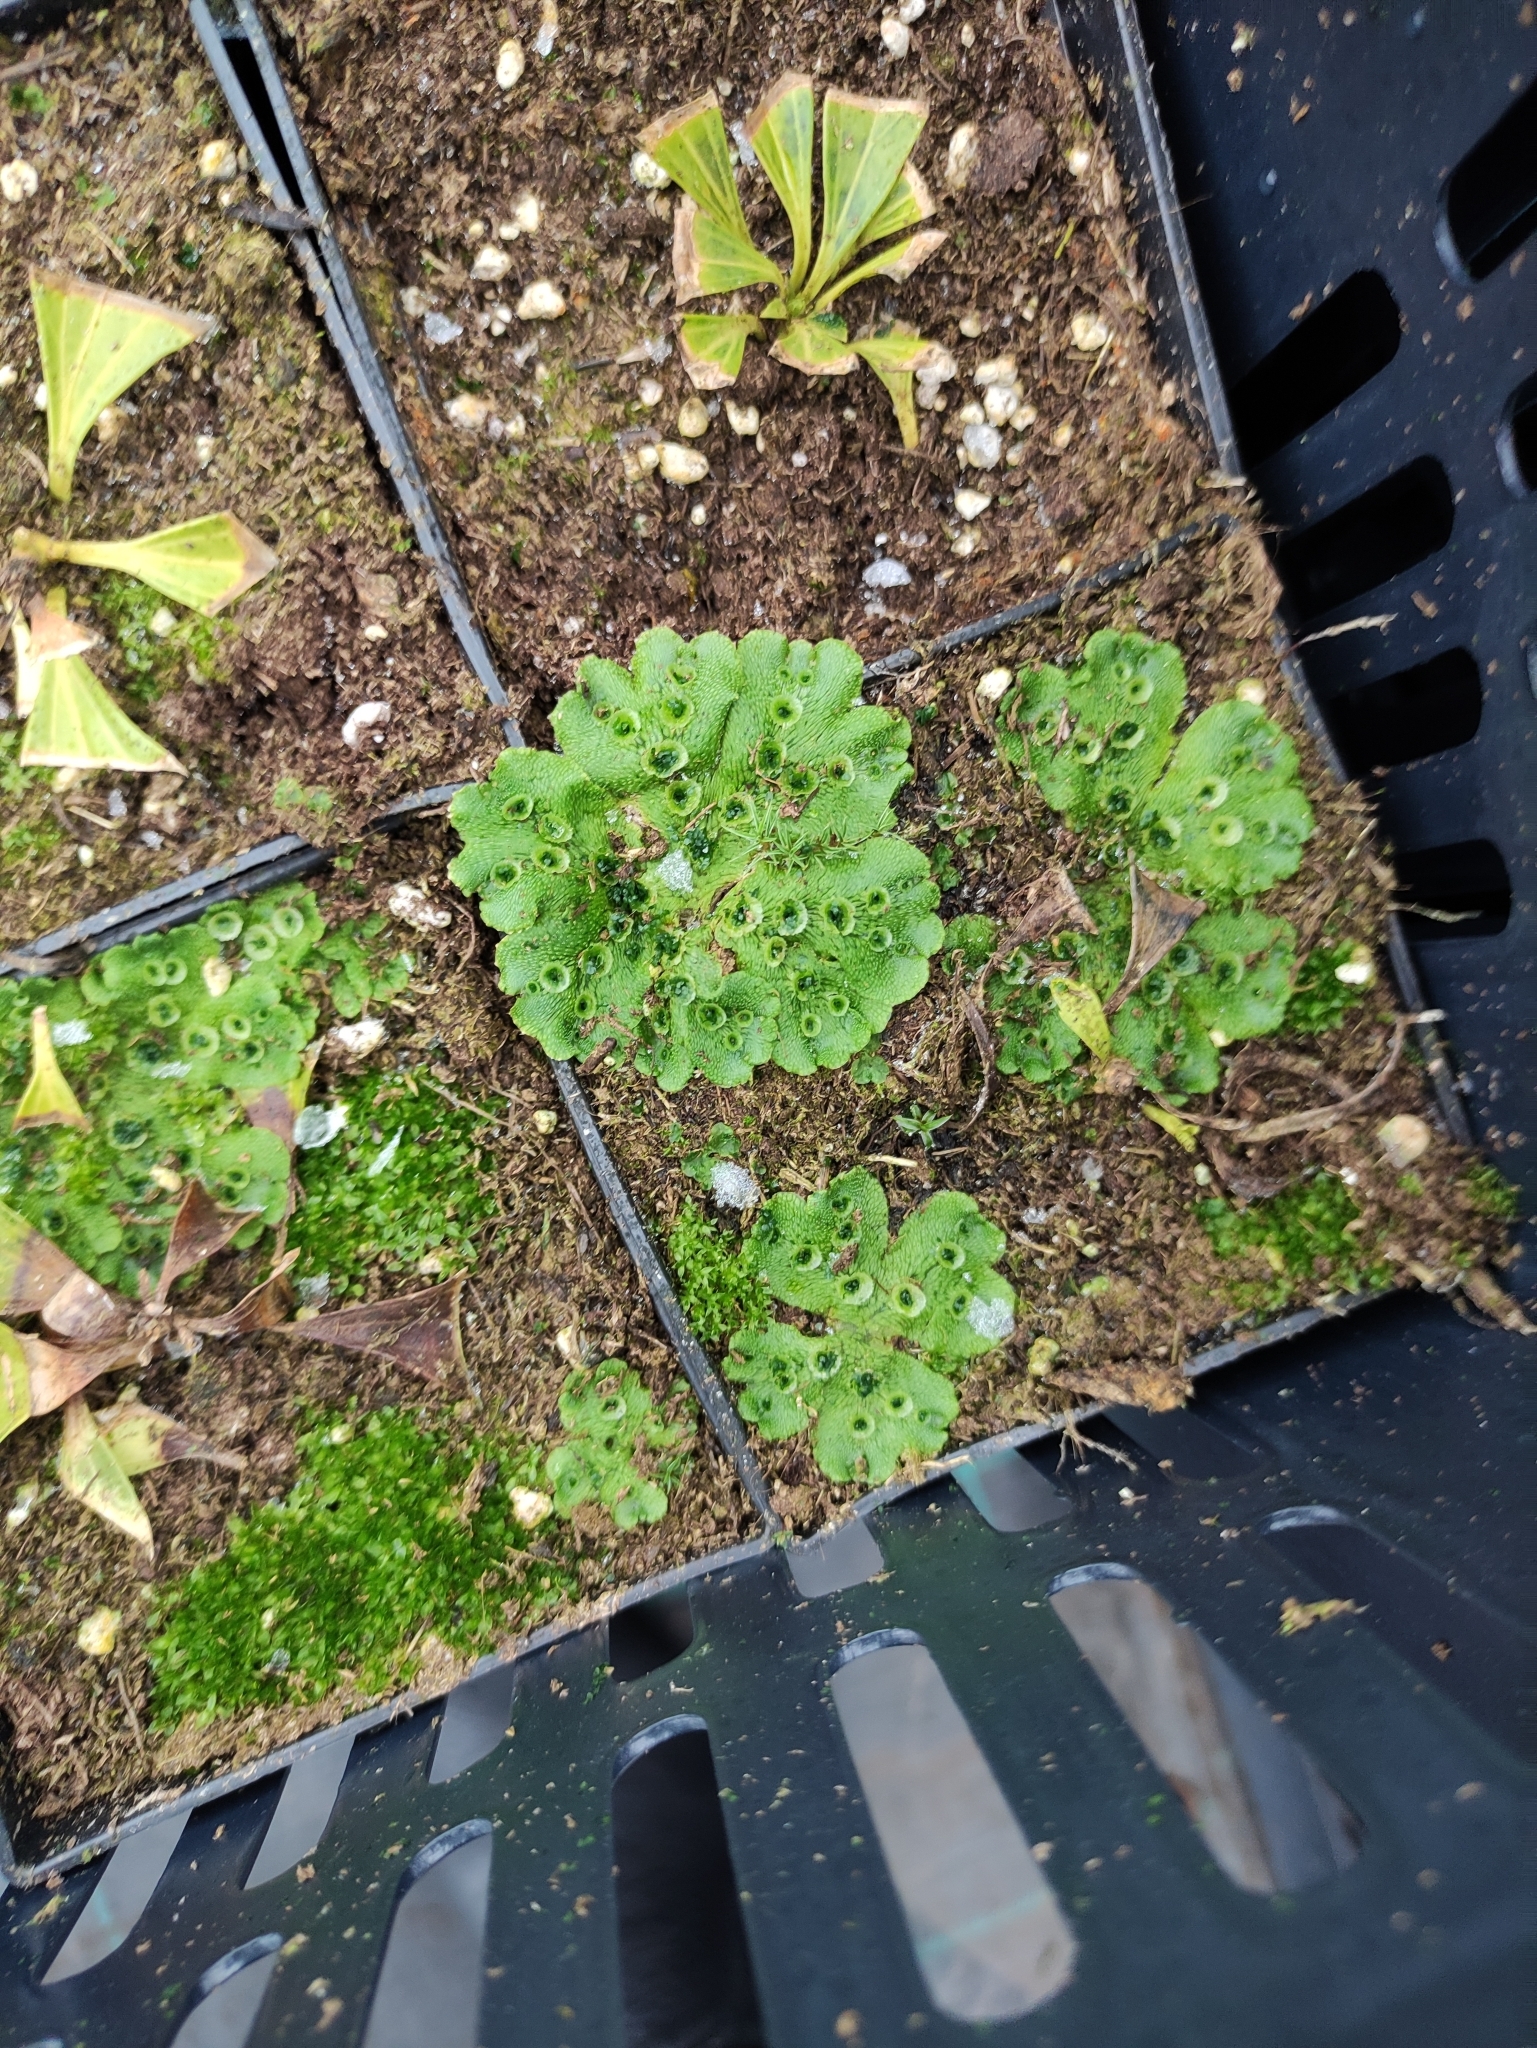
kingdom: Plantae
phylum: Marchantiophyta
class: Marchantiopsida
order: Marchantiales
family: Marchantiaceae
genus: Marchantia
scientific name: Marchantia polymorpha
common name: Common liverwort
